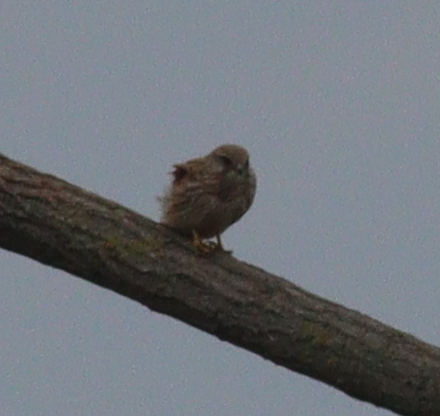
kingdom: Animalia
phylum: Chordata
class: Aves
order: Falconiformes
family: Falconidae
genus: Falco
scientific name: Falco tinnunculus
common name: Common kestrel
